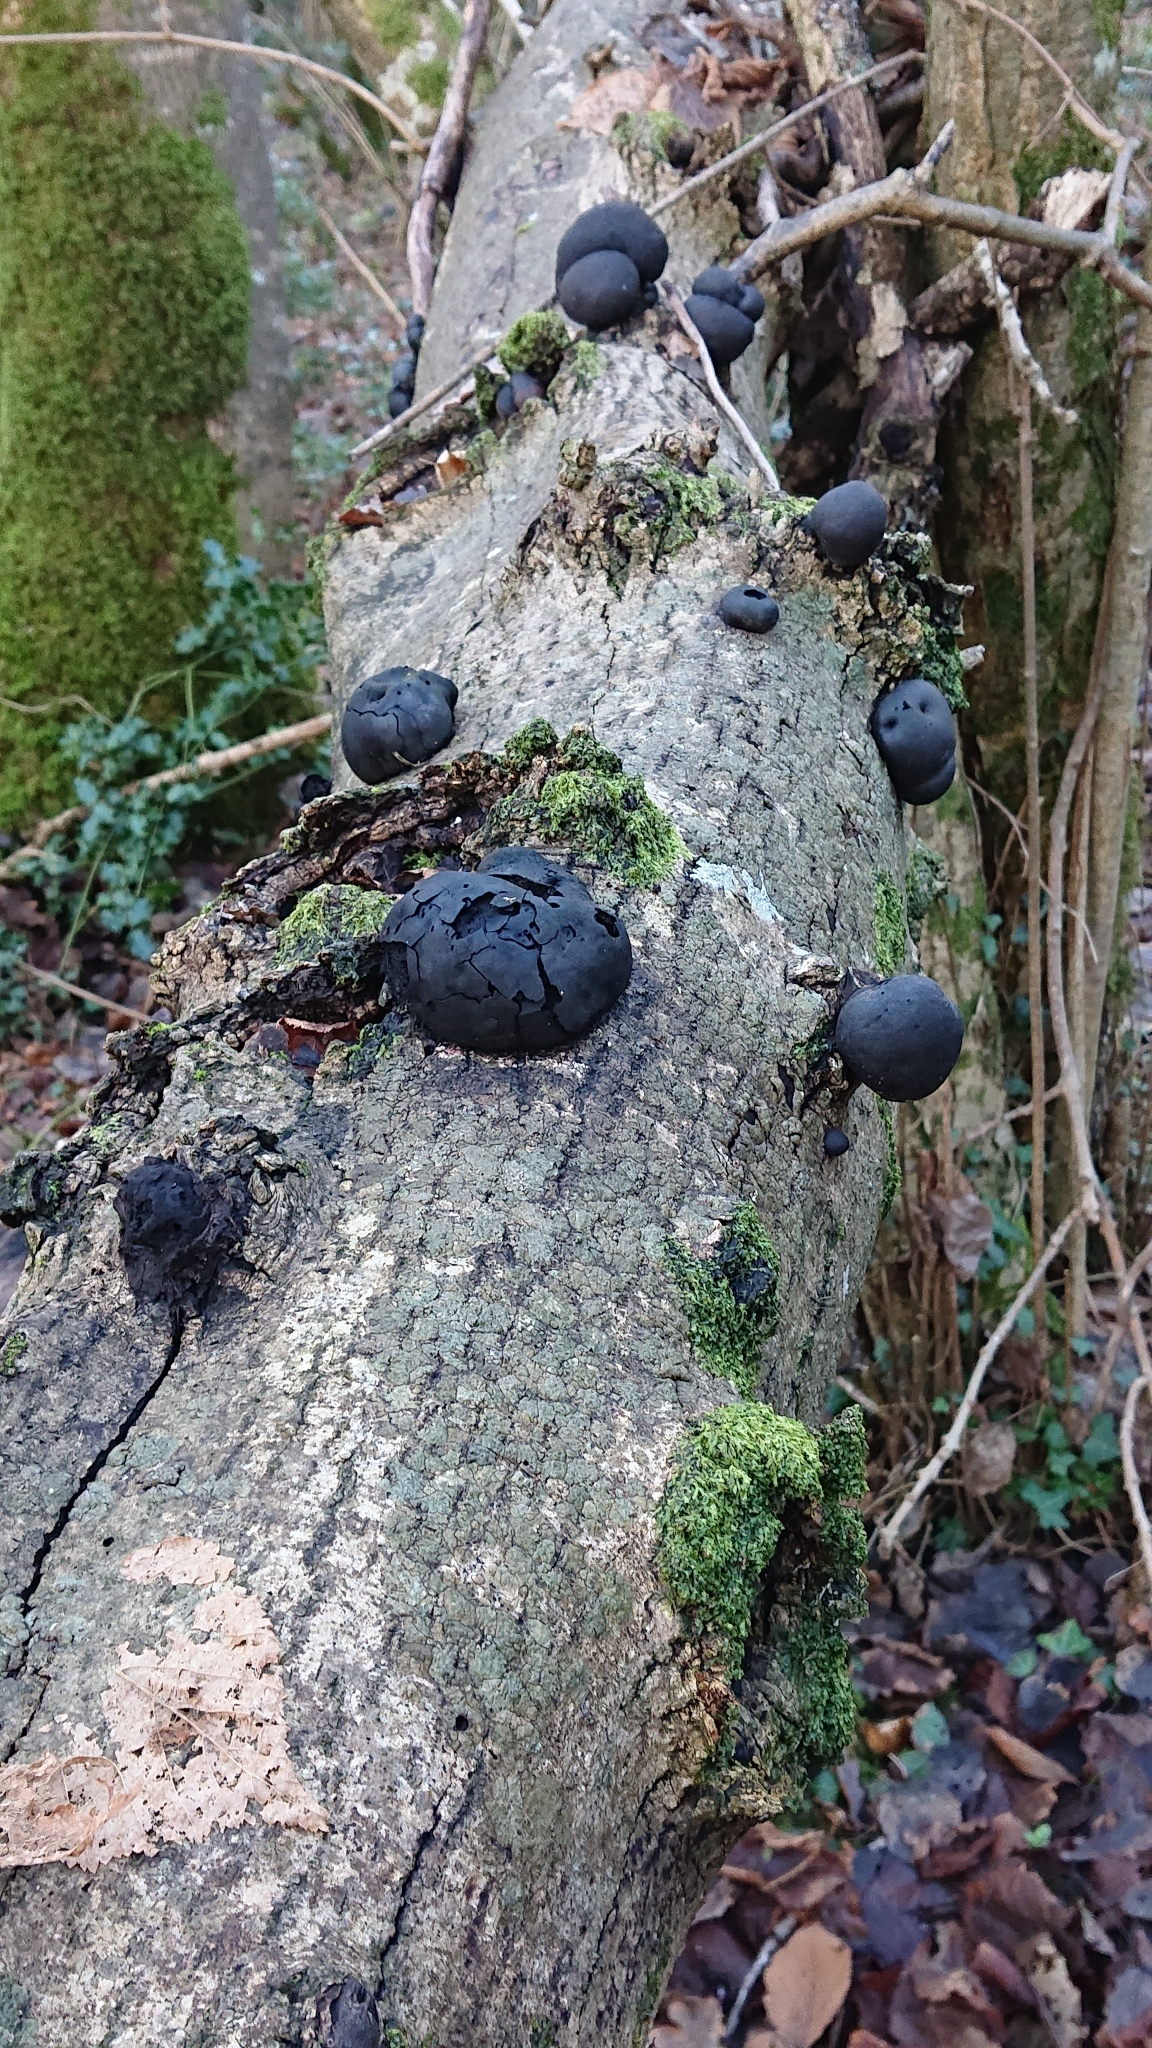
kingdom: Fungi
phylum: Ascomycota
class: Sordariomycetes
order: Xylariales
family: Hypoxylaceae
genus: Daldinia
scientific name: Daldinia concentrica
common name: Cramp balls
